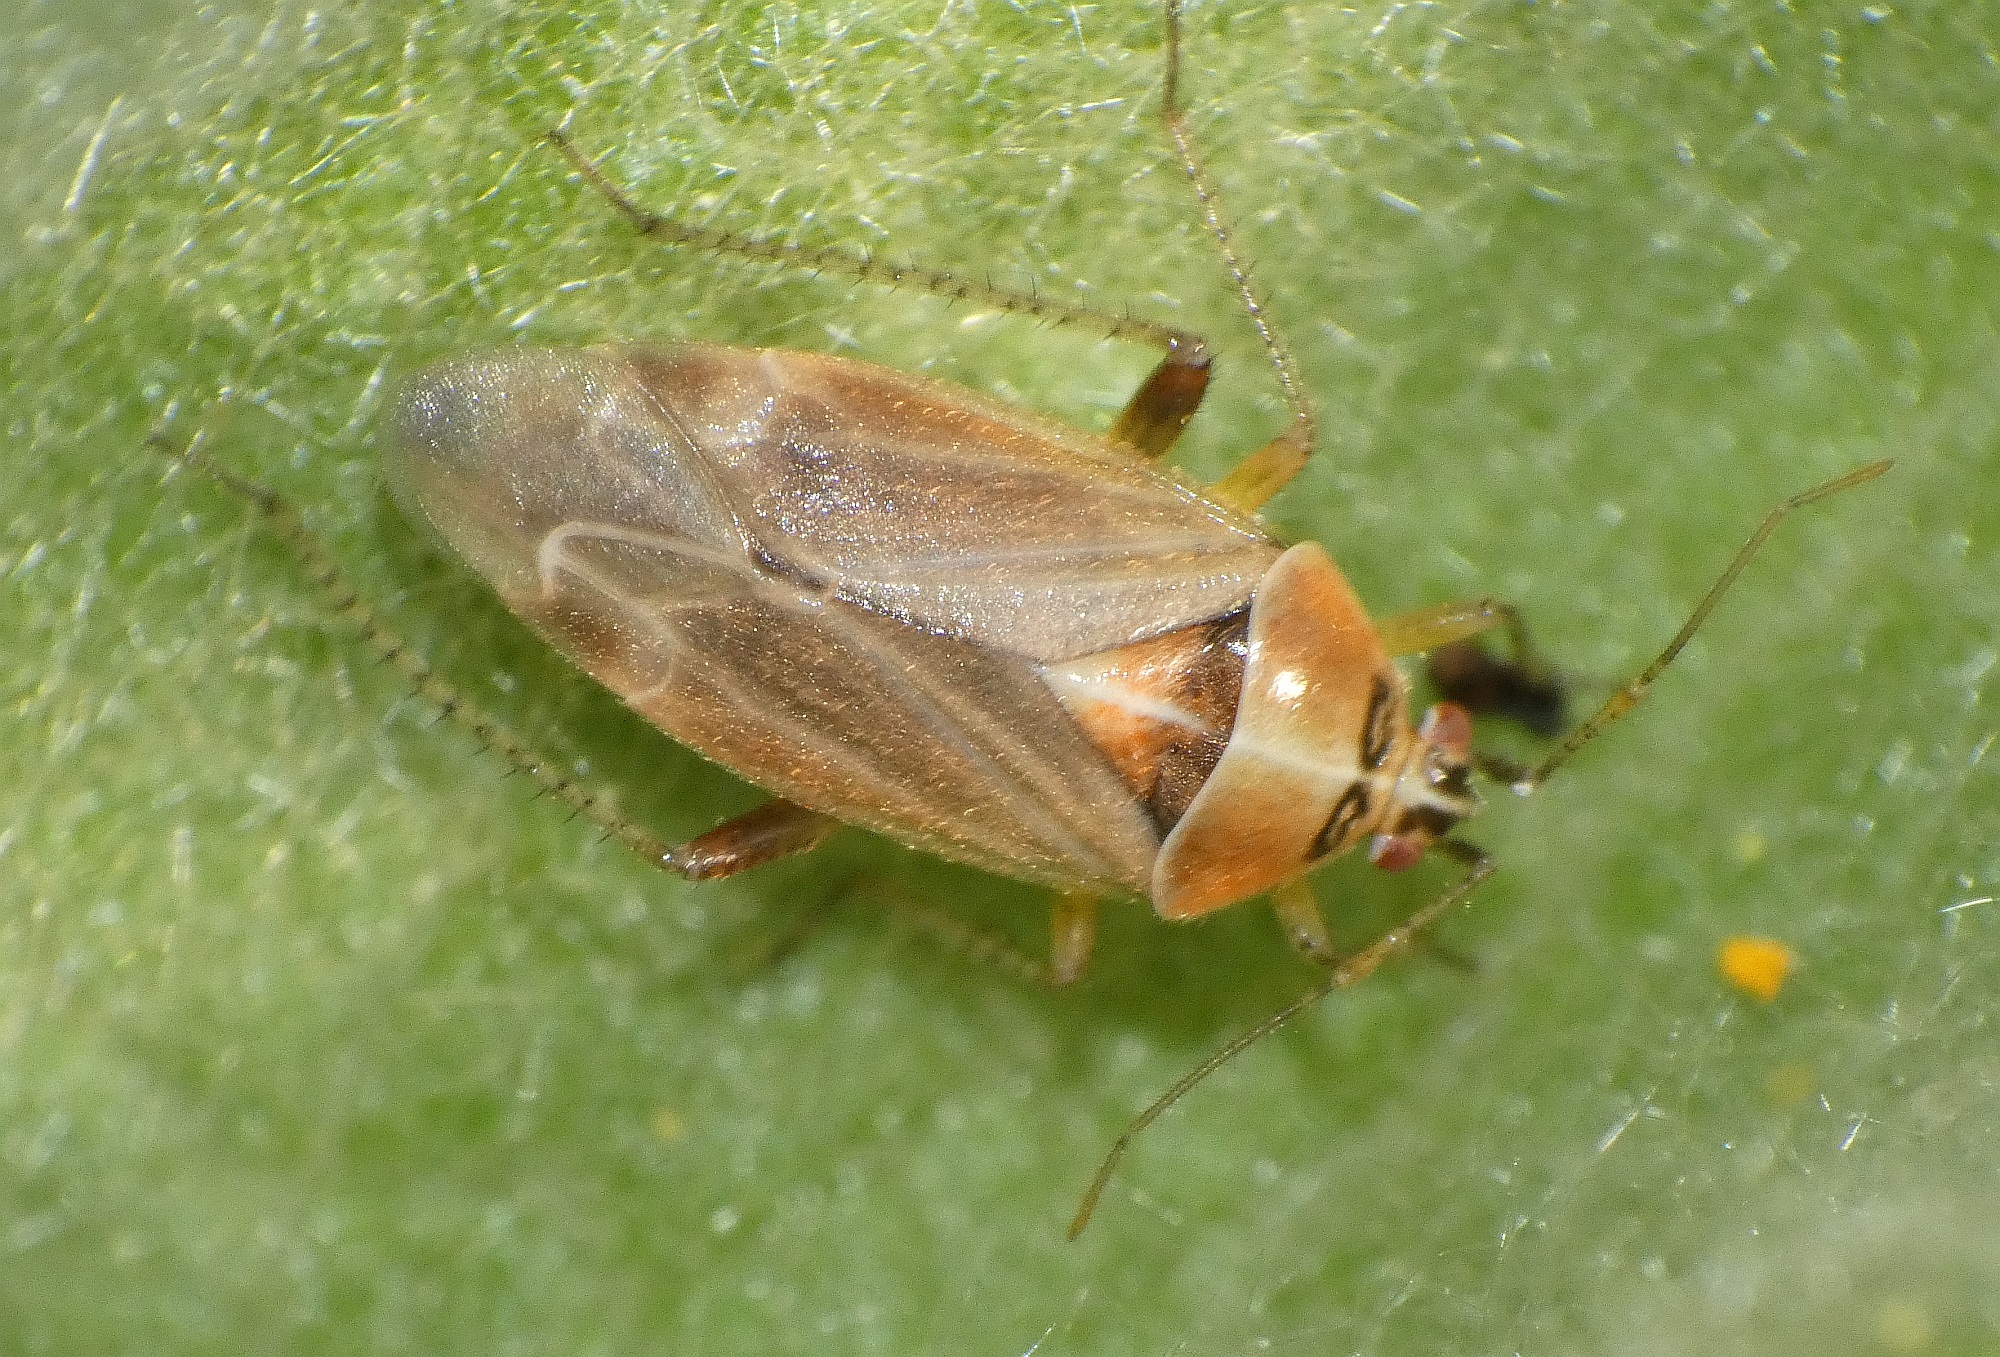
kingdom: Animalia
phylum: Arthropoda
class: Insecta
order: Hemiptera
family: Miridae
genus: Harpocera
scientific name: Harpocera thoracica
